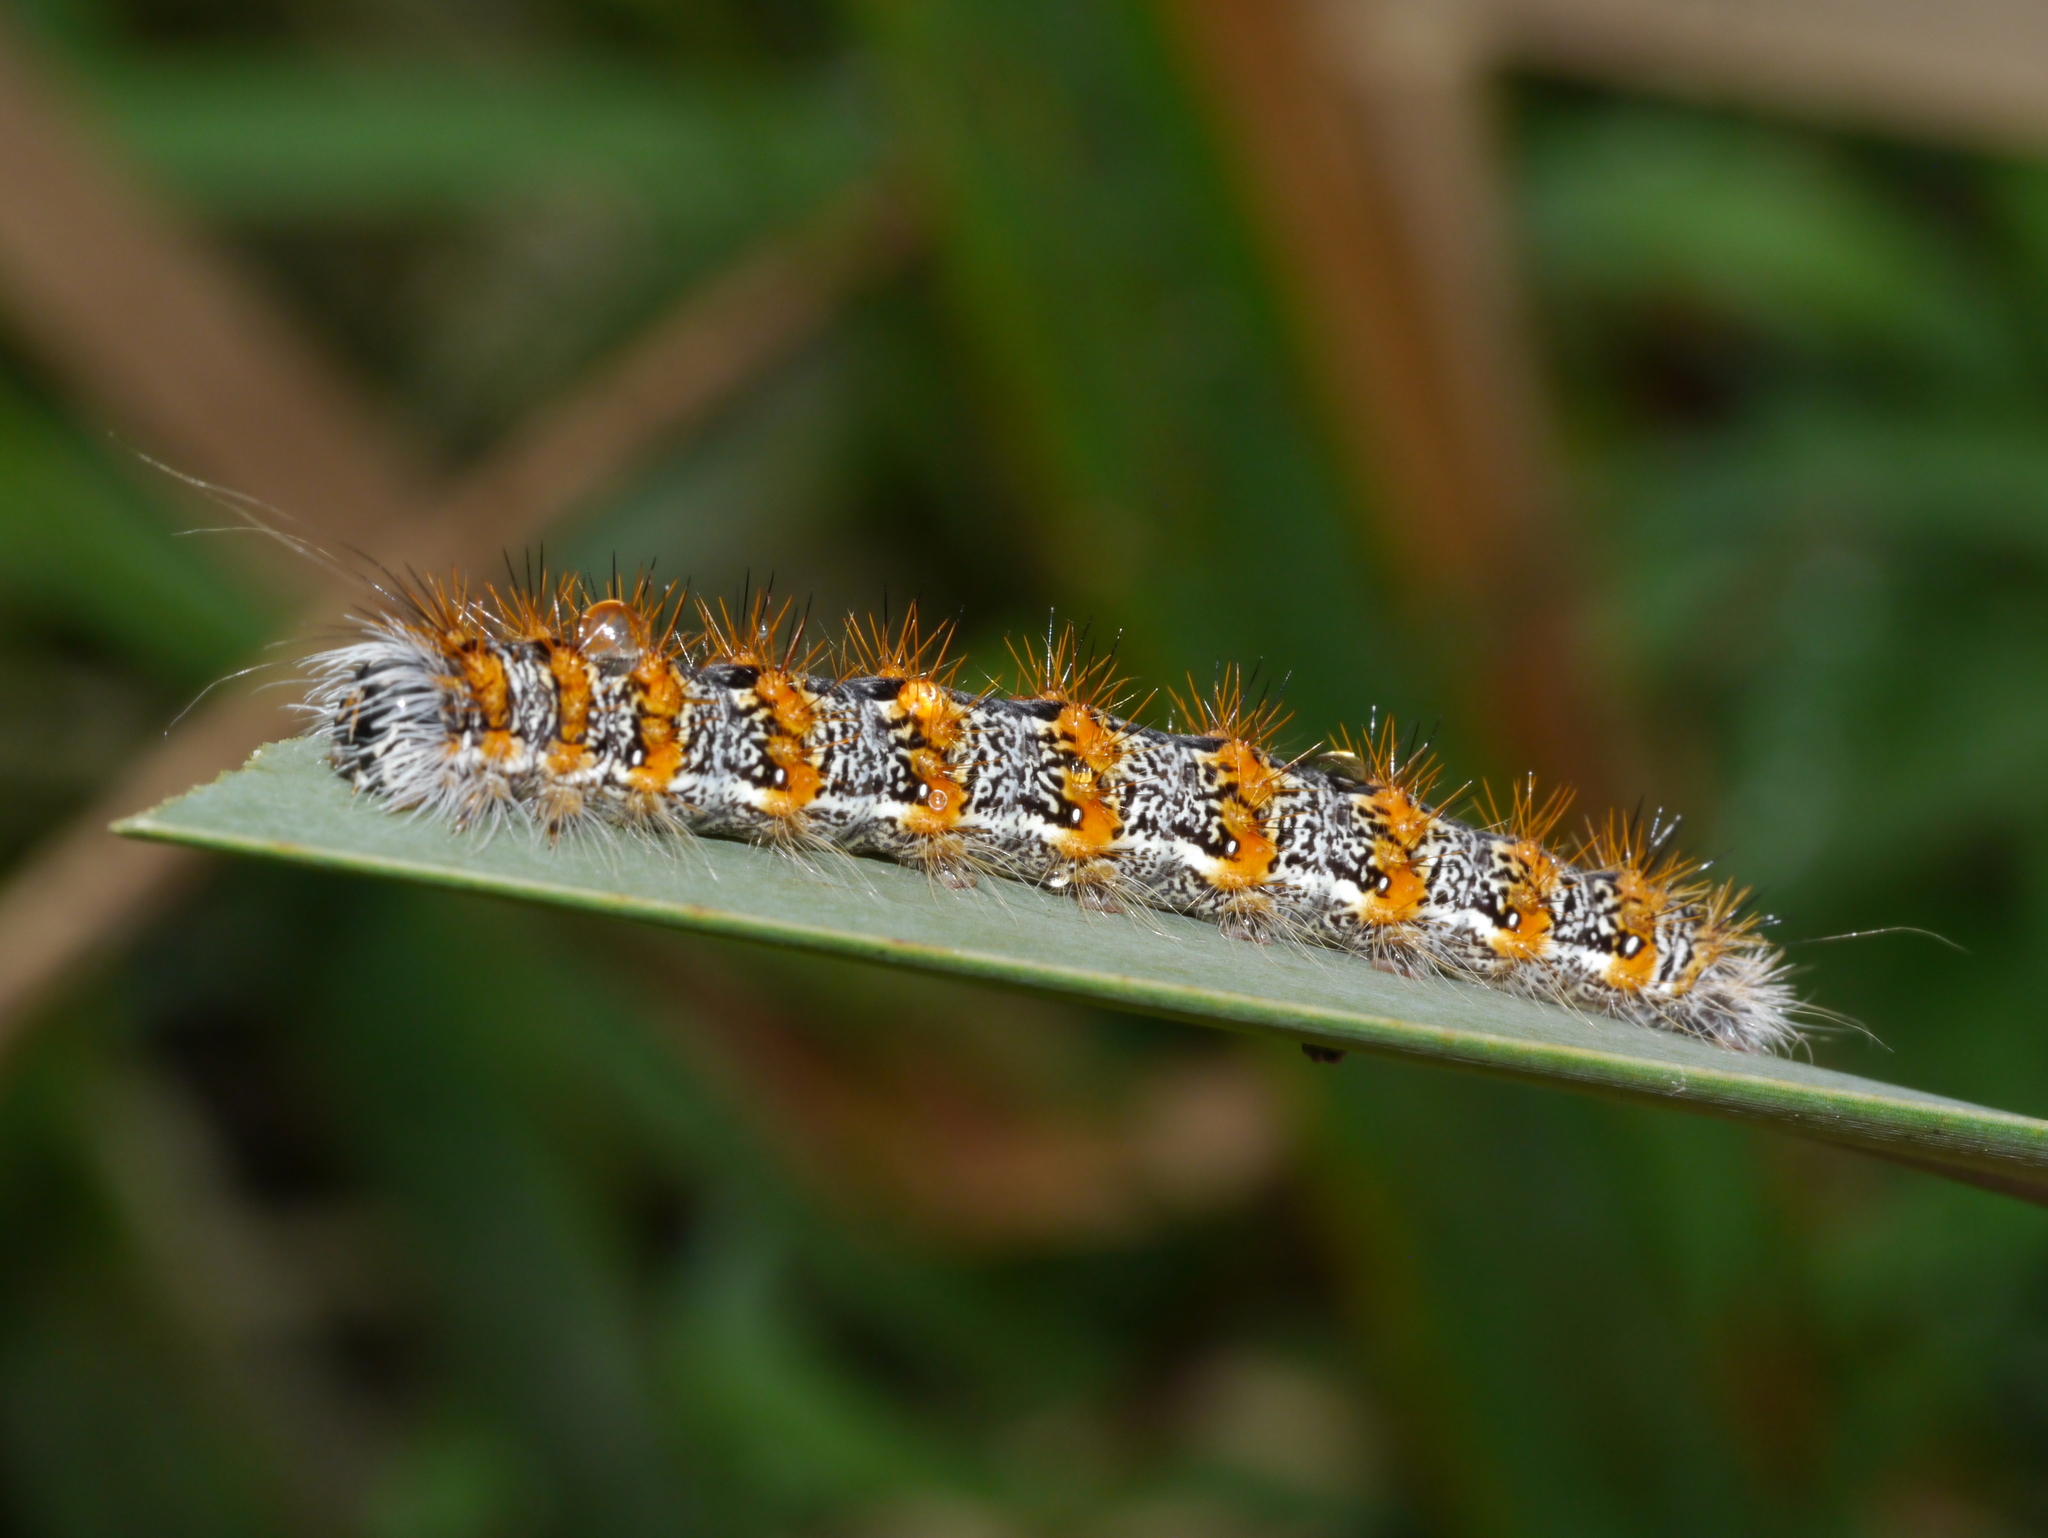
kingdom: Animalia
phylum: Arthropoda
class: Insecta
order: Lepidoptera
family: Noctuidae
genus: Acronicta
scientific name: Acronicta insularis
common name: Henry's marsh moth
